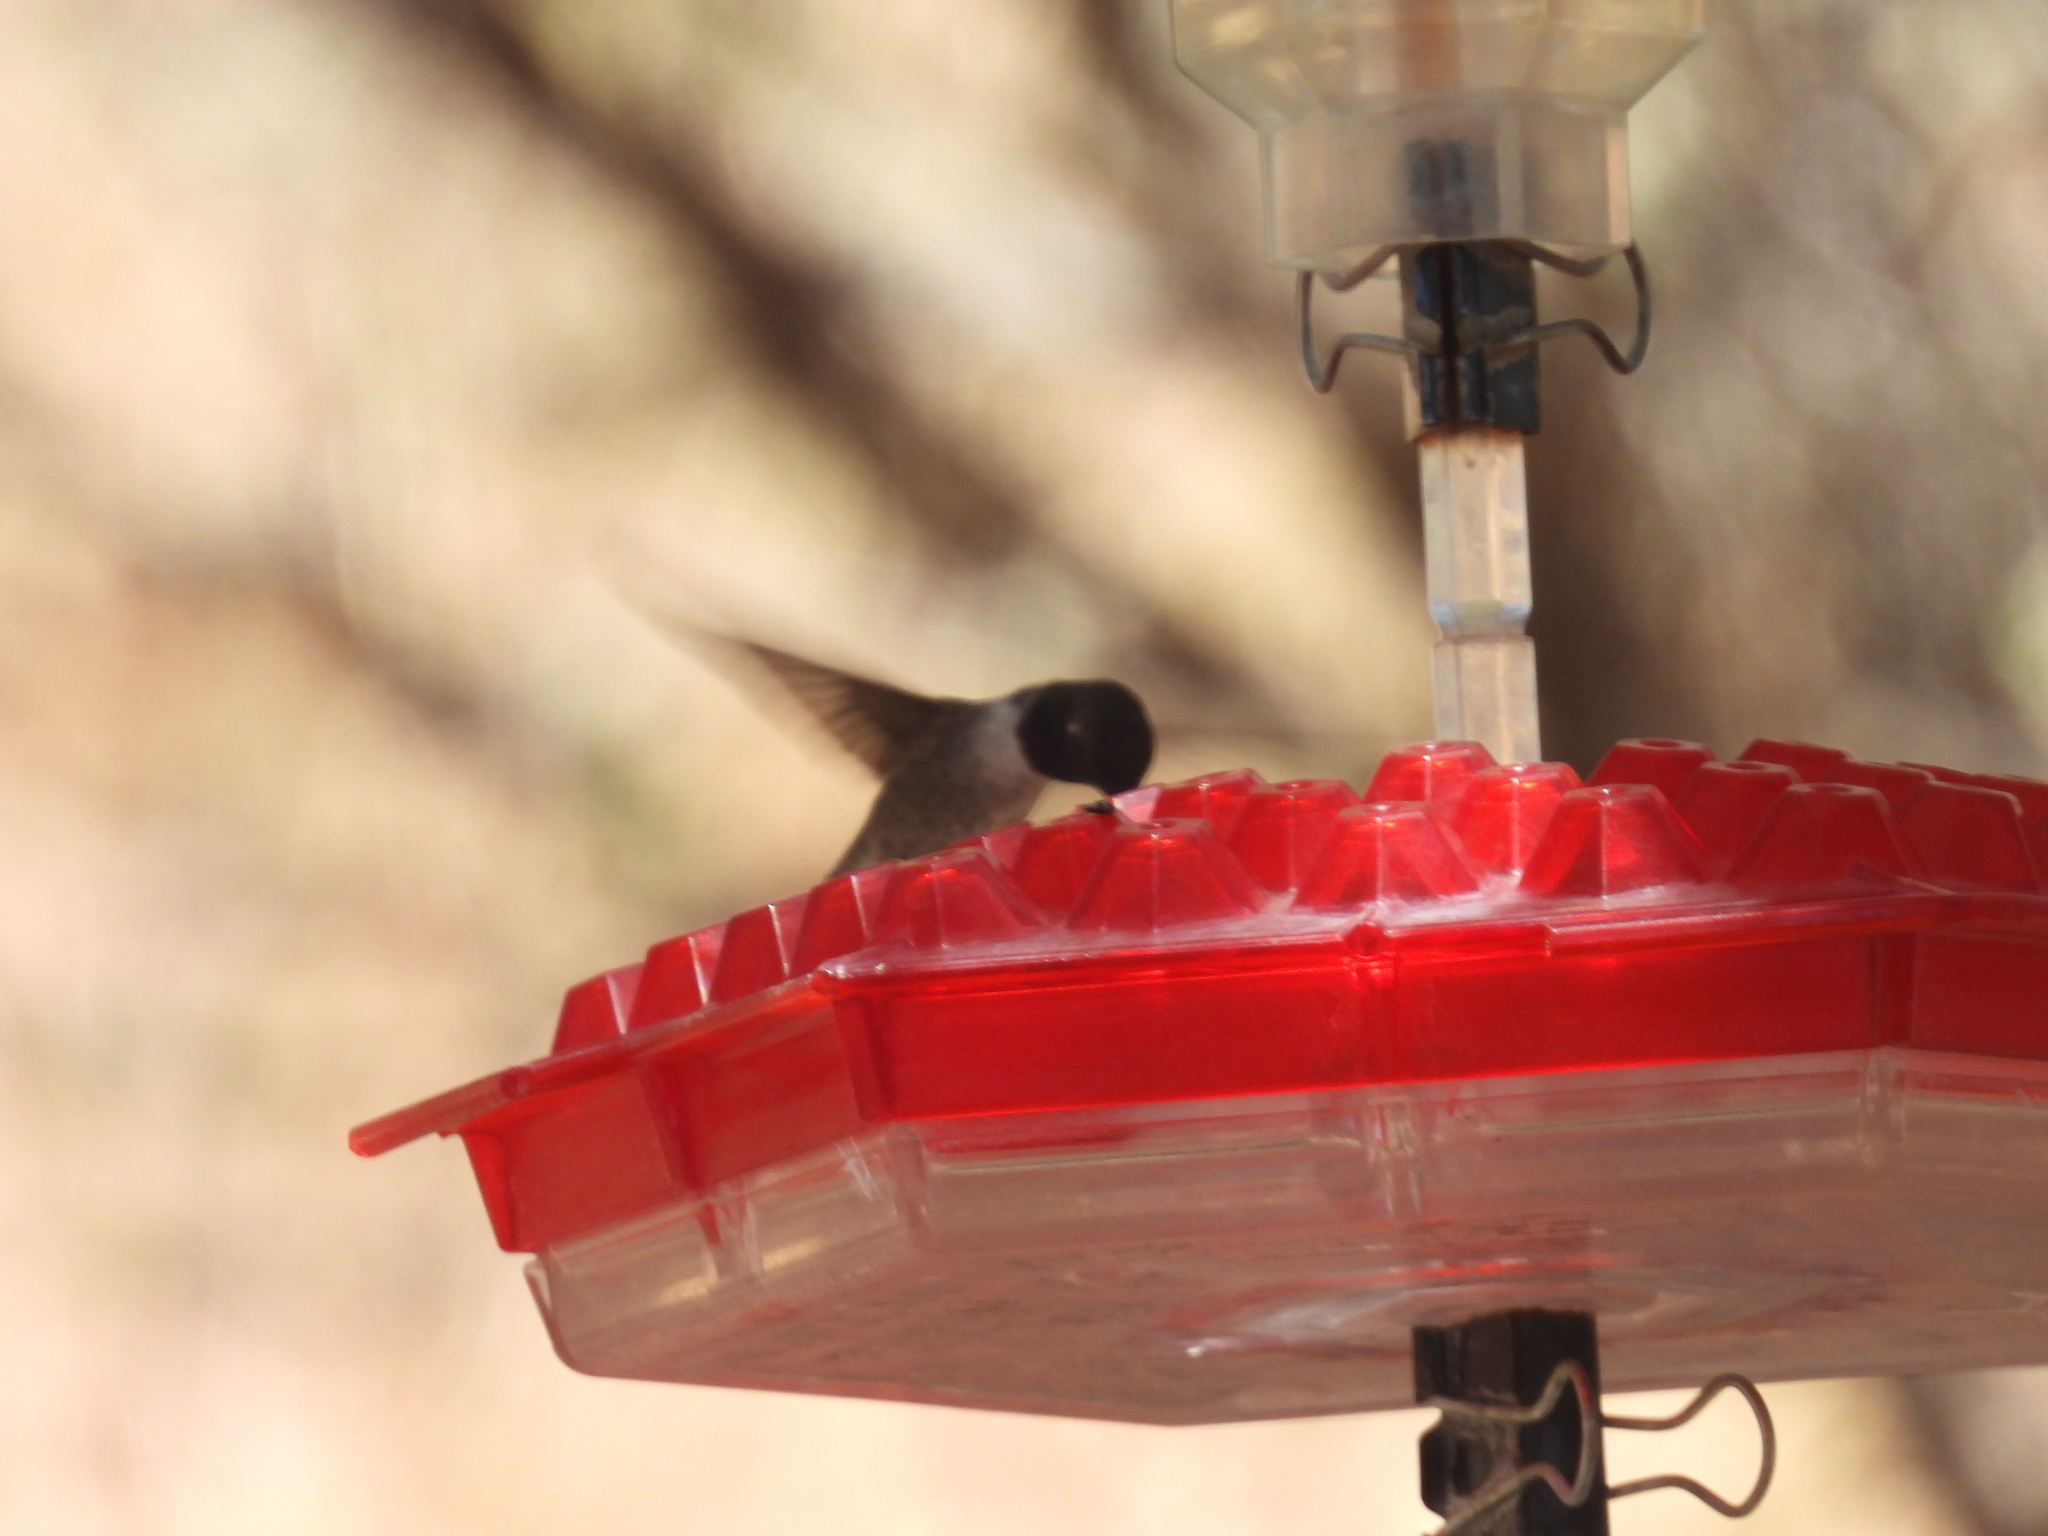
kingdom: Animalia
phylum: Chordata
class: Aves
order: Apodiformes
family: Trochilidae
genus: Archilochus
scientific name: Archilochus alexandri
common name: Black-chinned hummingbird
